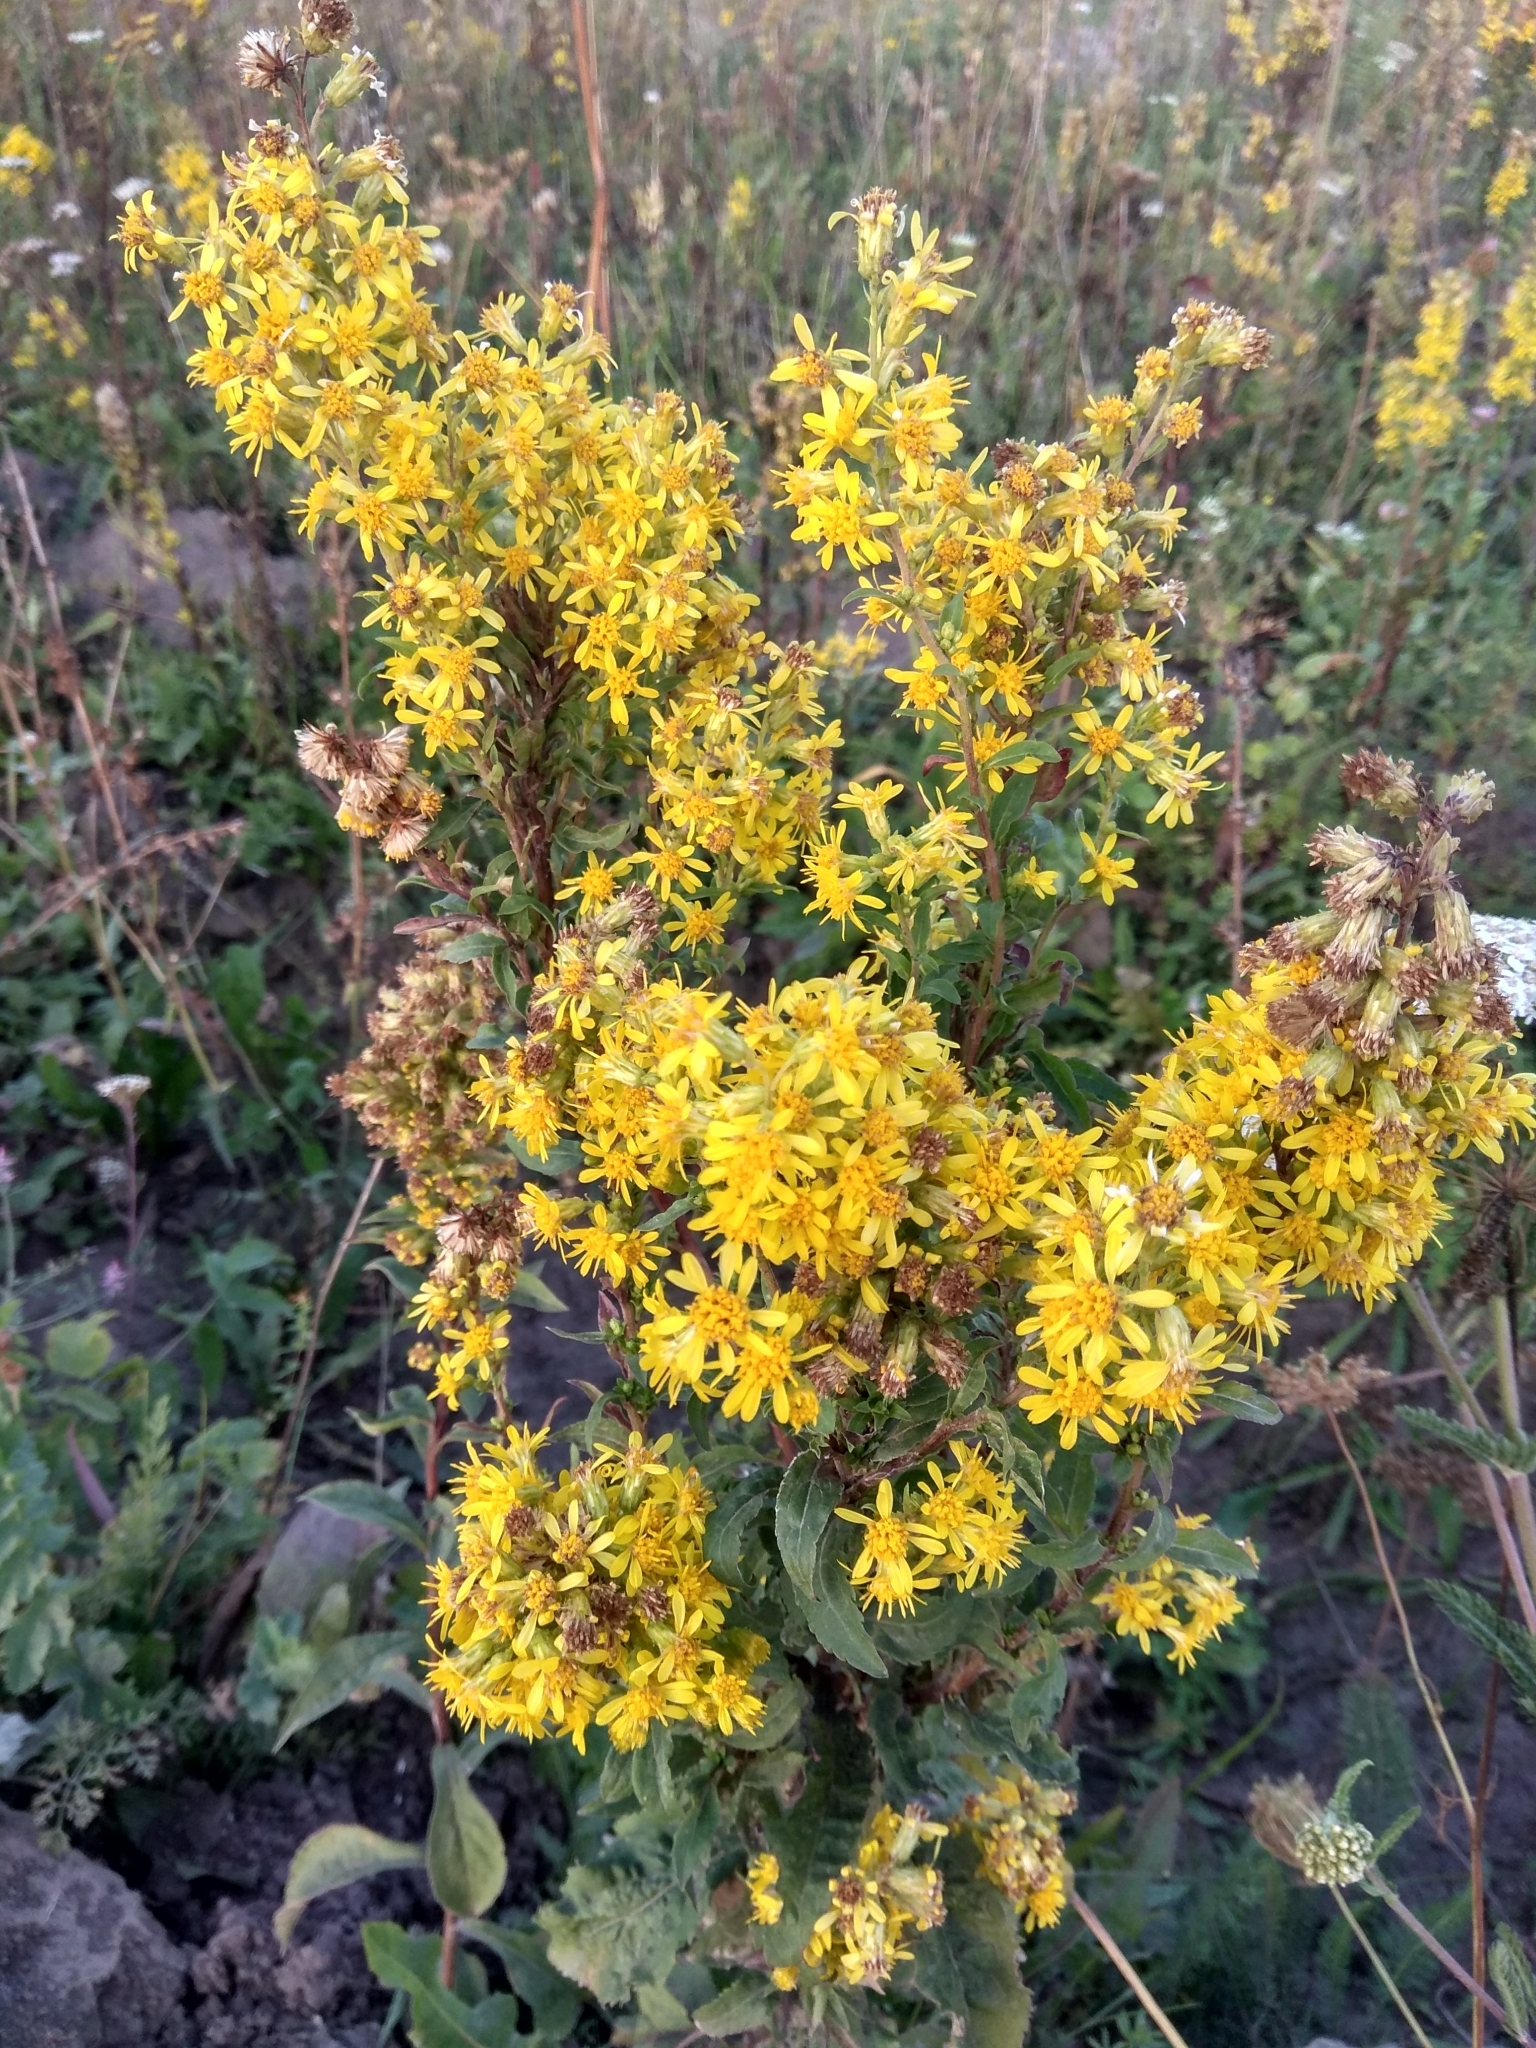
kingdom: Plantae
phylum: Tracheophyta
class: Magnoliopsida
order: Asterales
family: Asteraceae
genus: Solidago
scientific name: Solidago virgaurea
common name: Goldenrod
